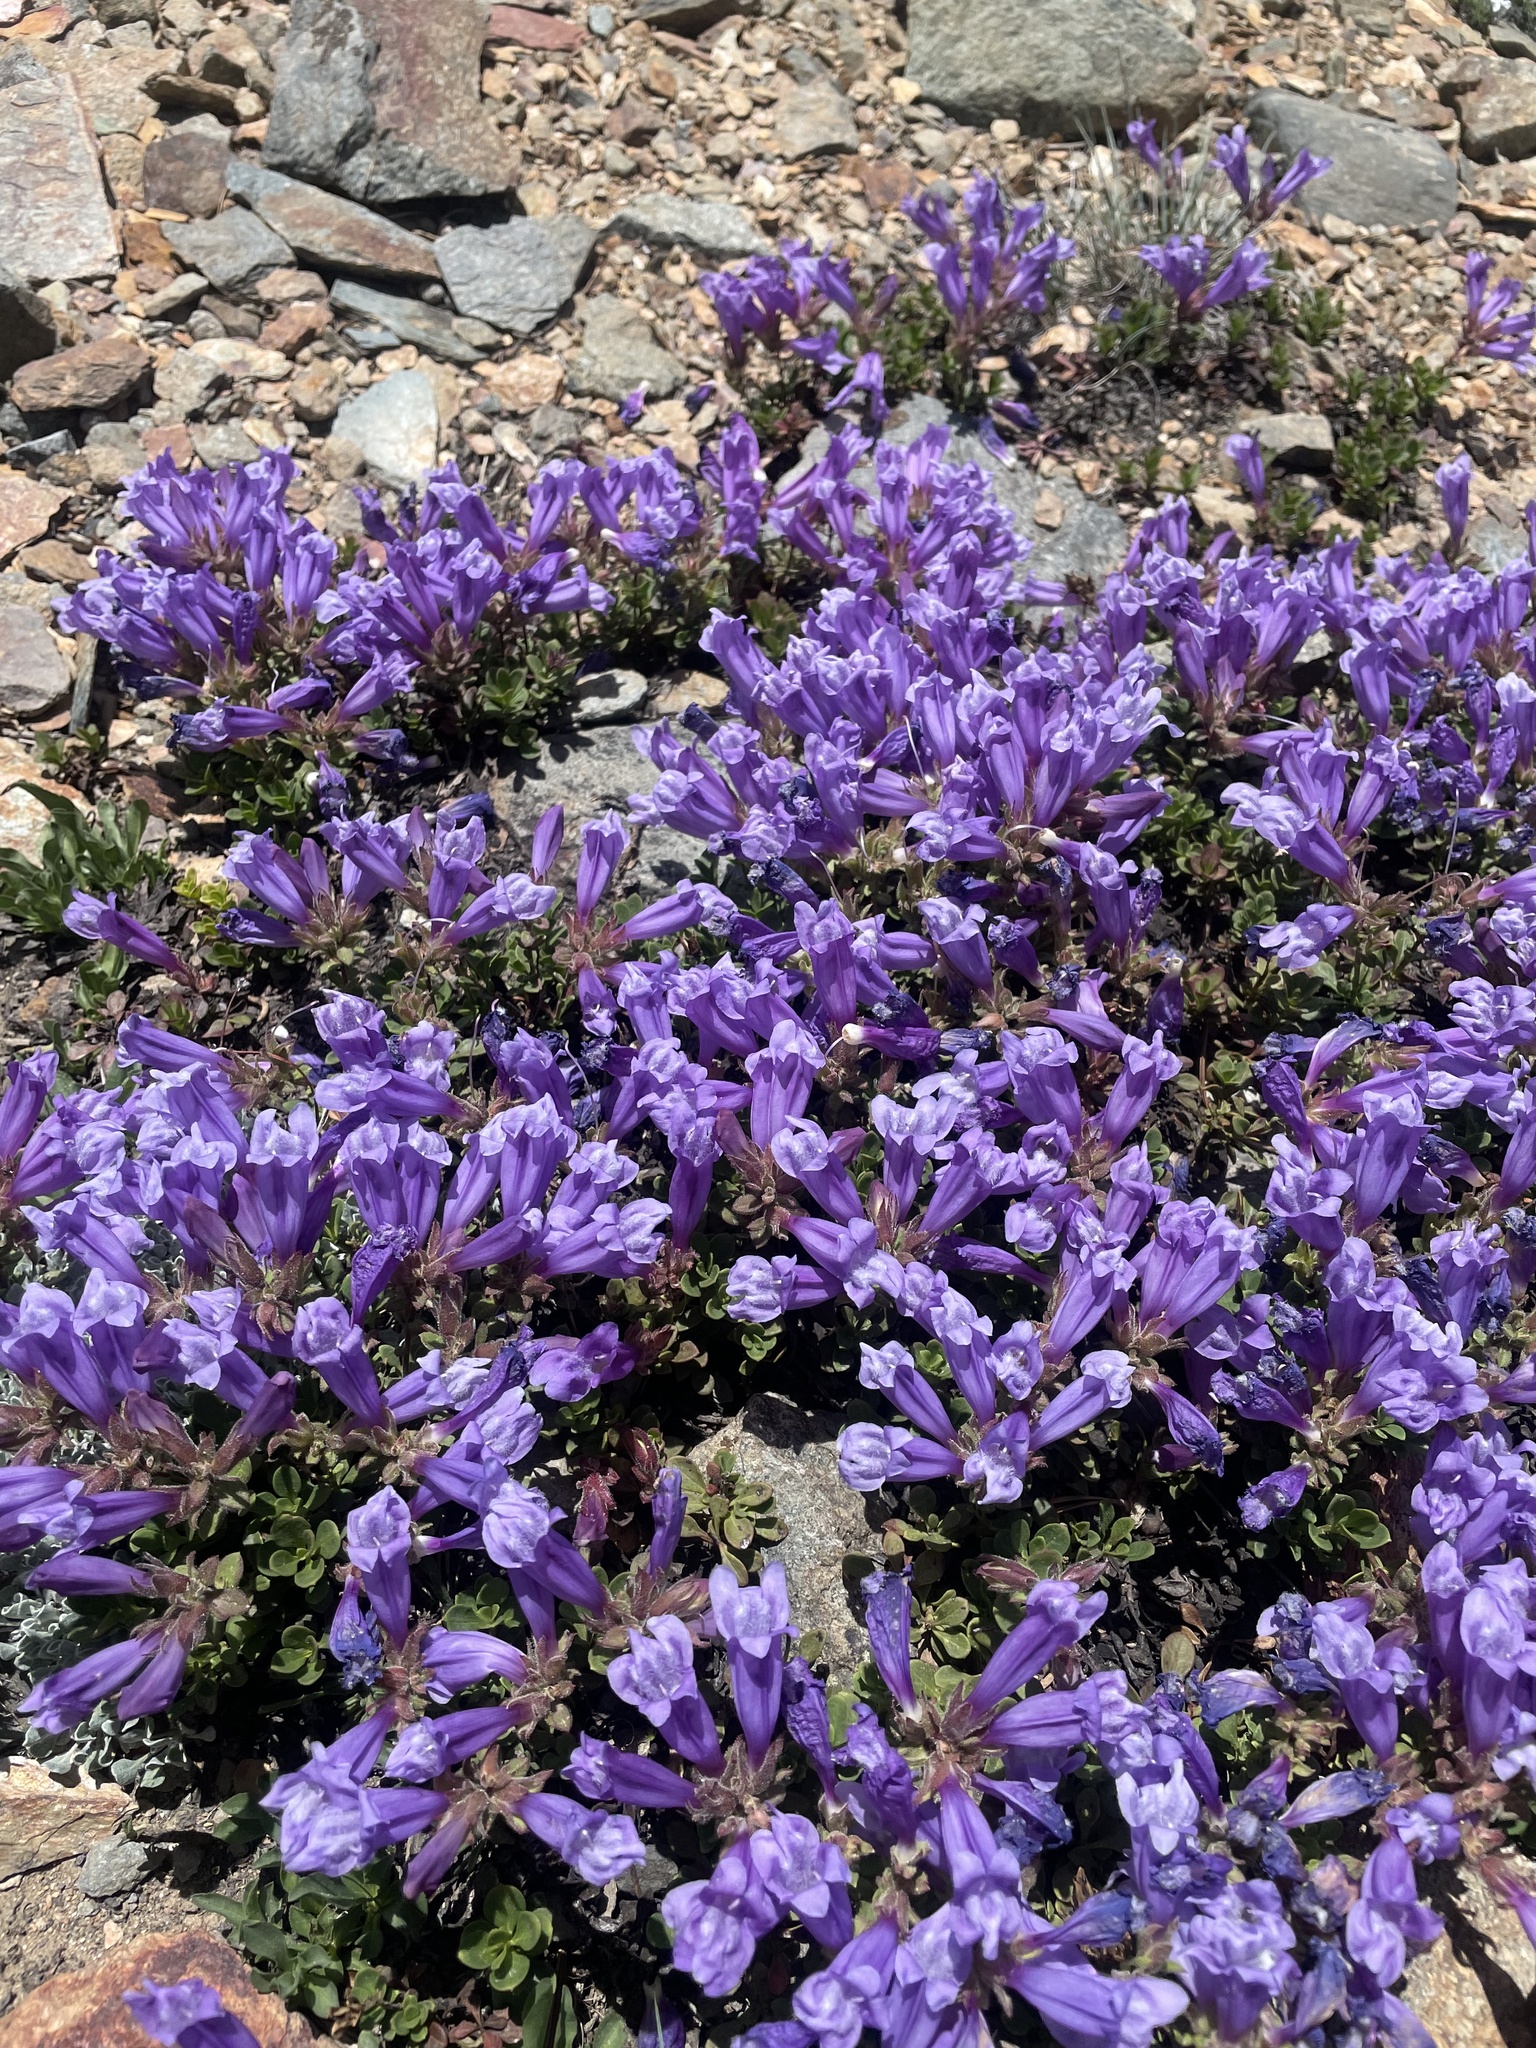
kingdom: Plantae
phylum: Tracheophyta
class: Magnoliopsida
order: Lamiales
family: Plantaginaceae
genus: Penstemon
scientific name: Penstemon davidsonii
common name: Davidson's penstemon
